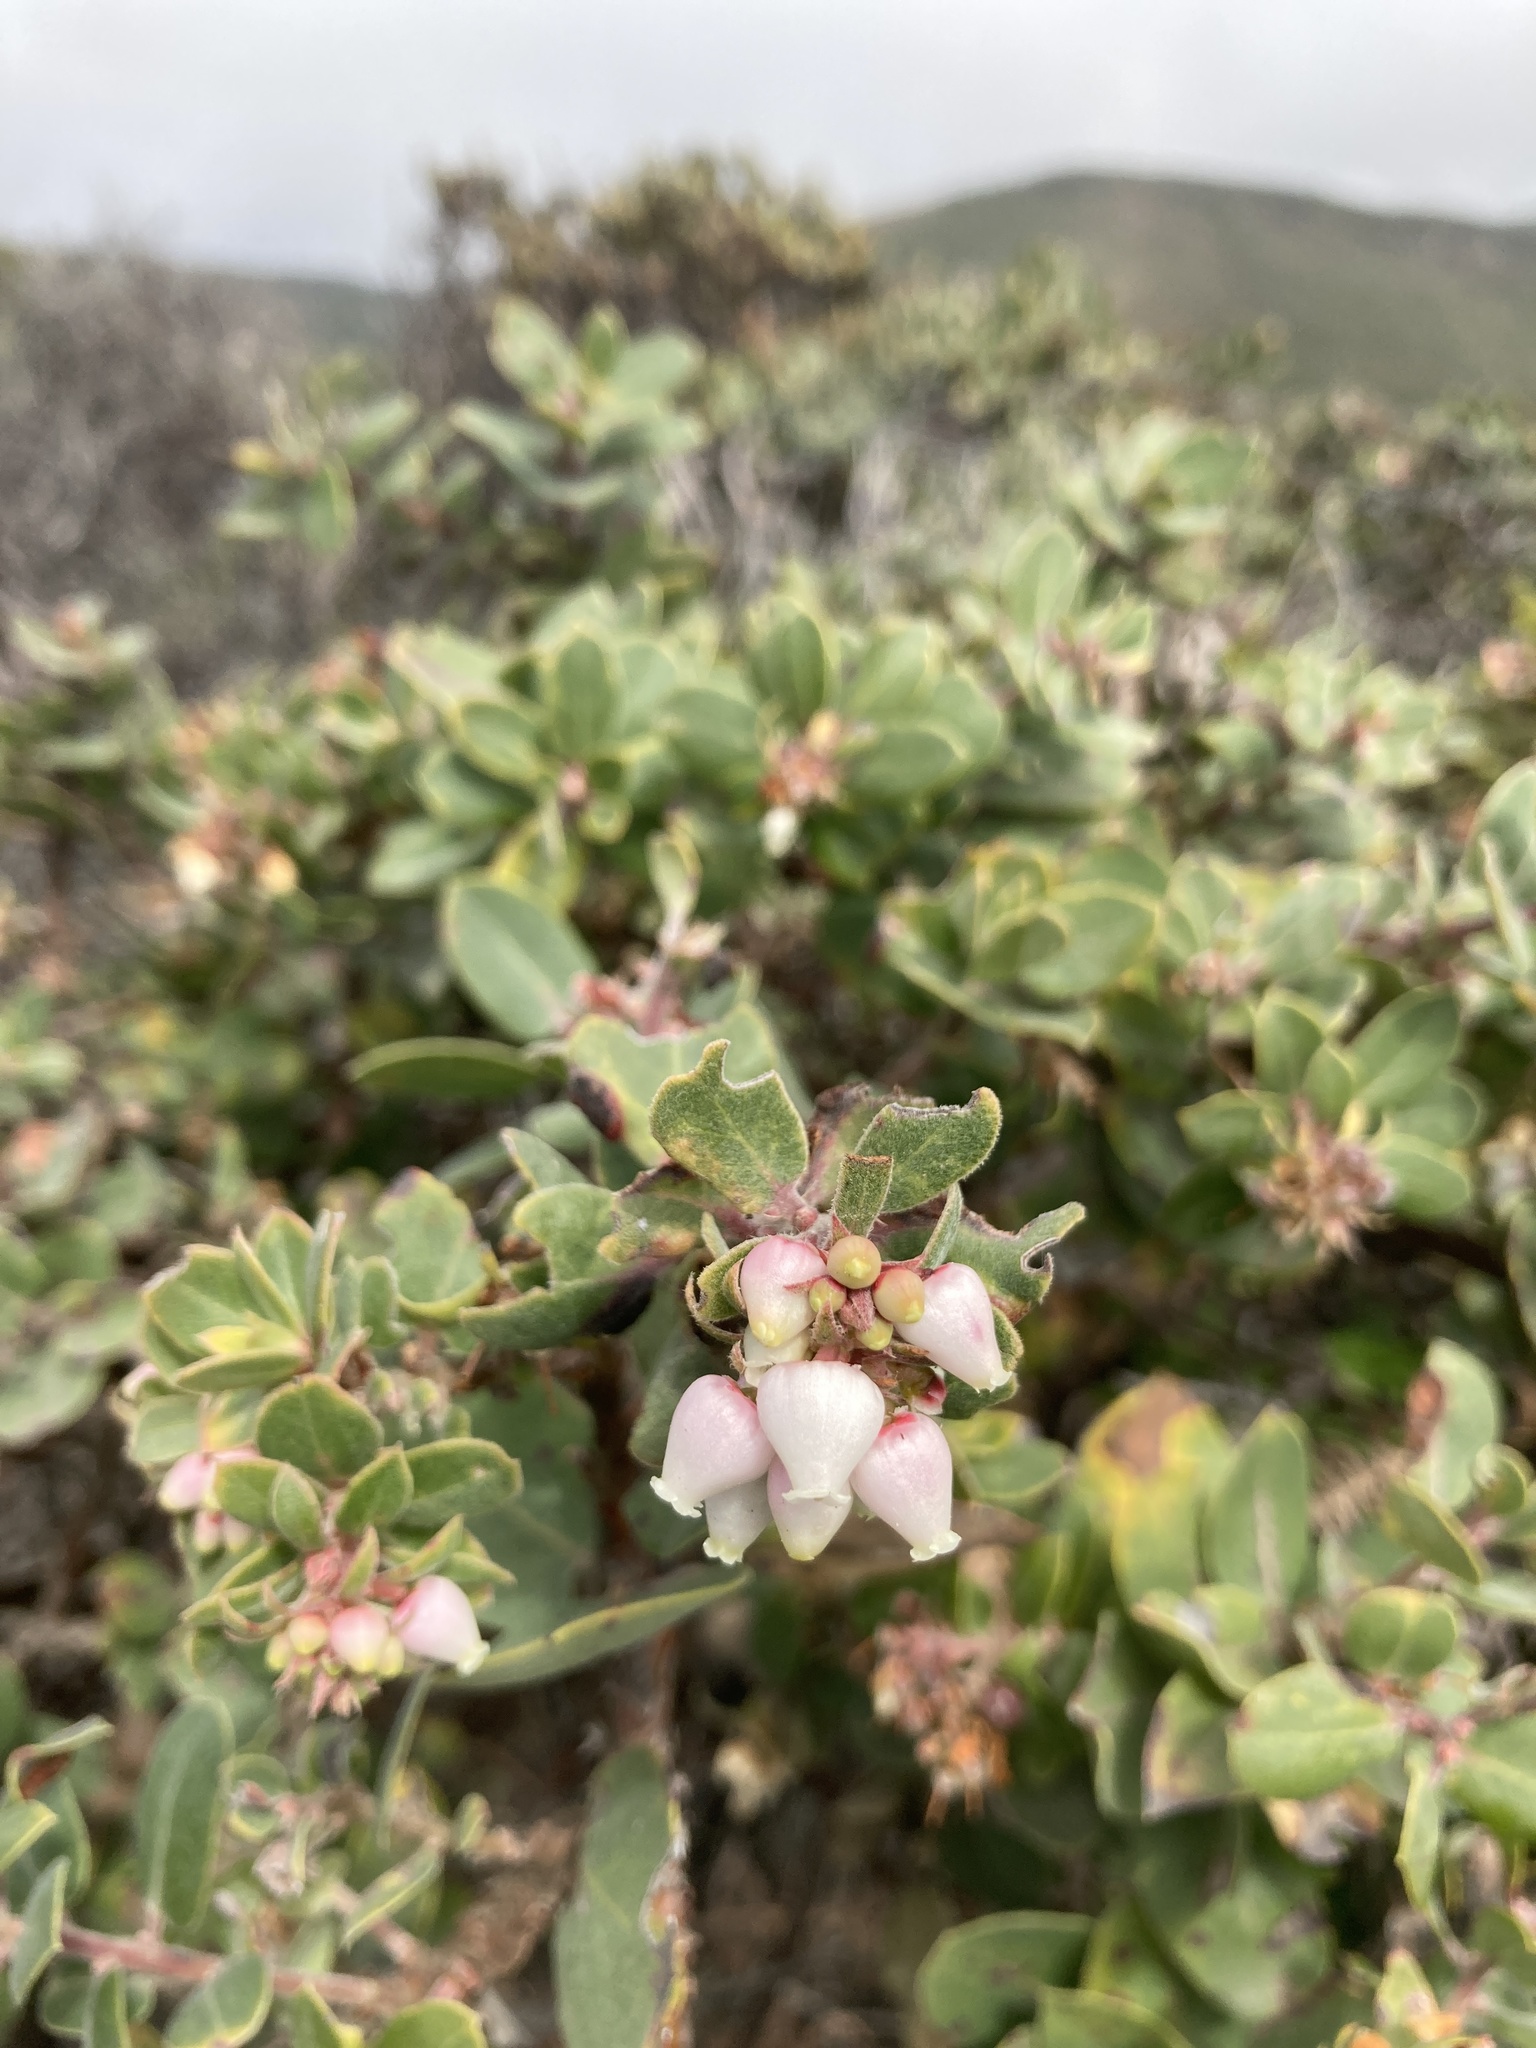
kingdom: Plantae
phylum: Tracheophyta
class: Magnoliopsida
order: Ericales
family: Ericaceae
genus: Arctostaphylos
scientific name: Arctostaphylos morroensis
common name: Morro manzanita
